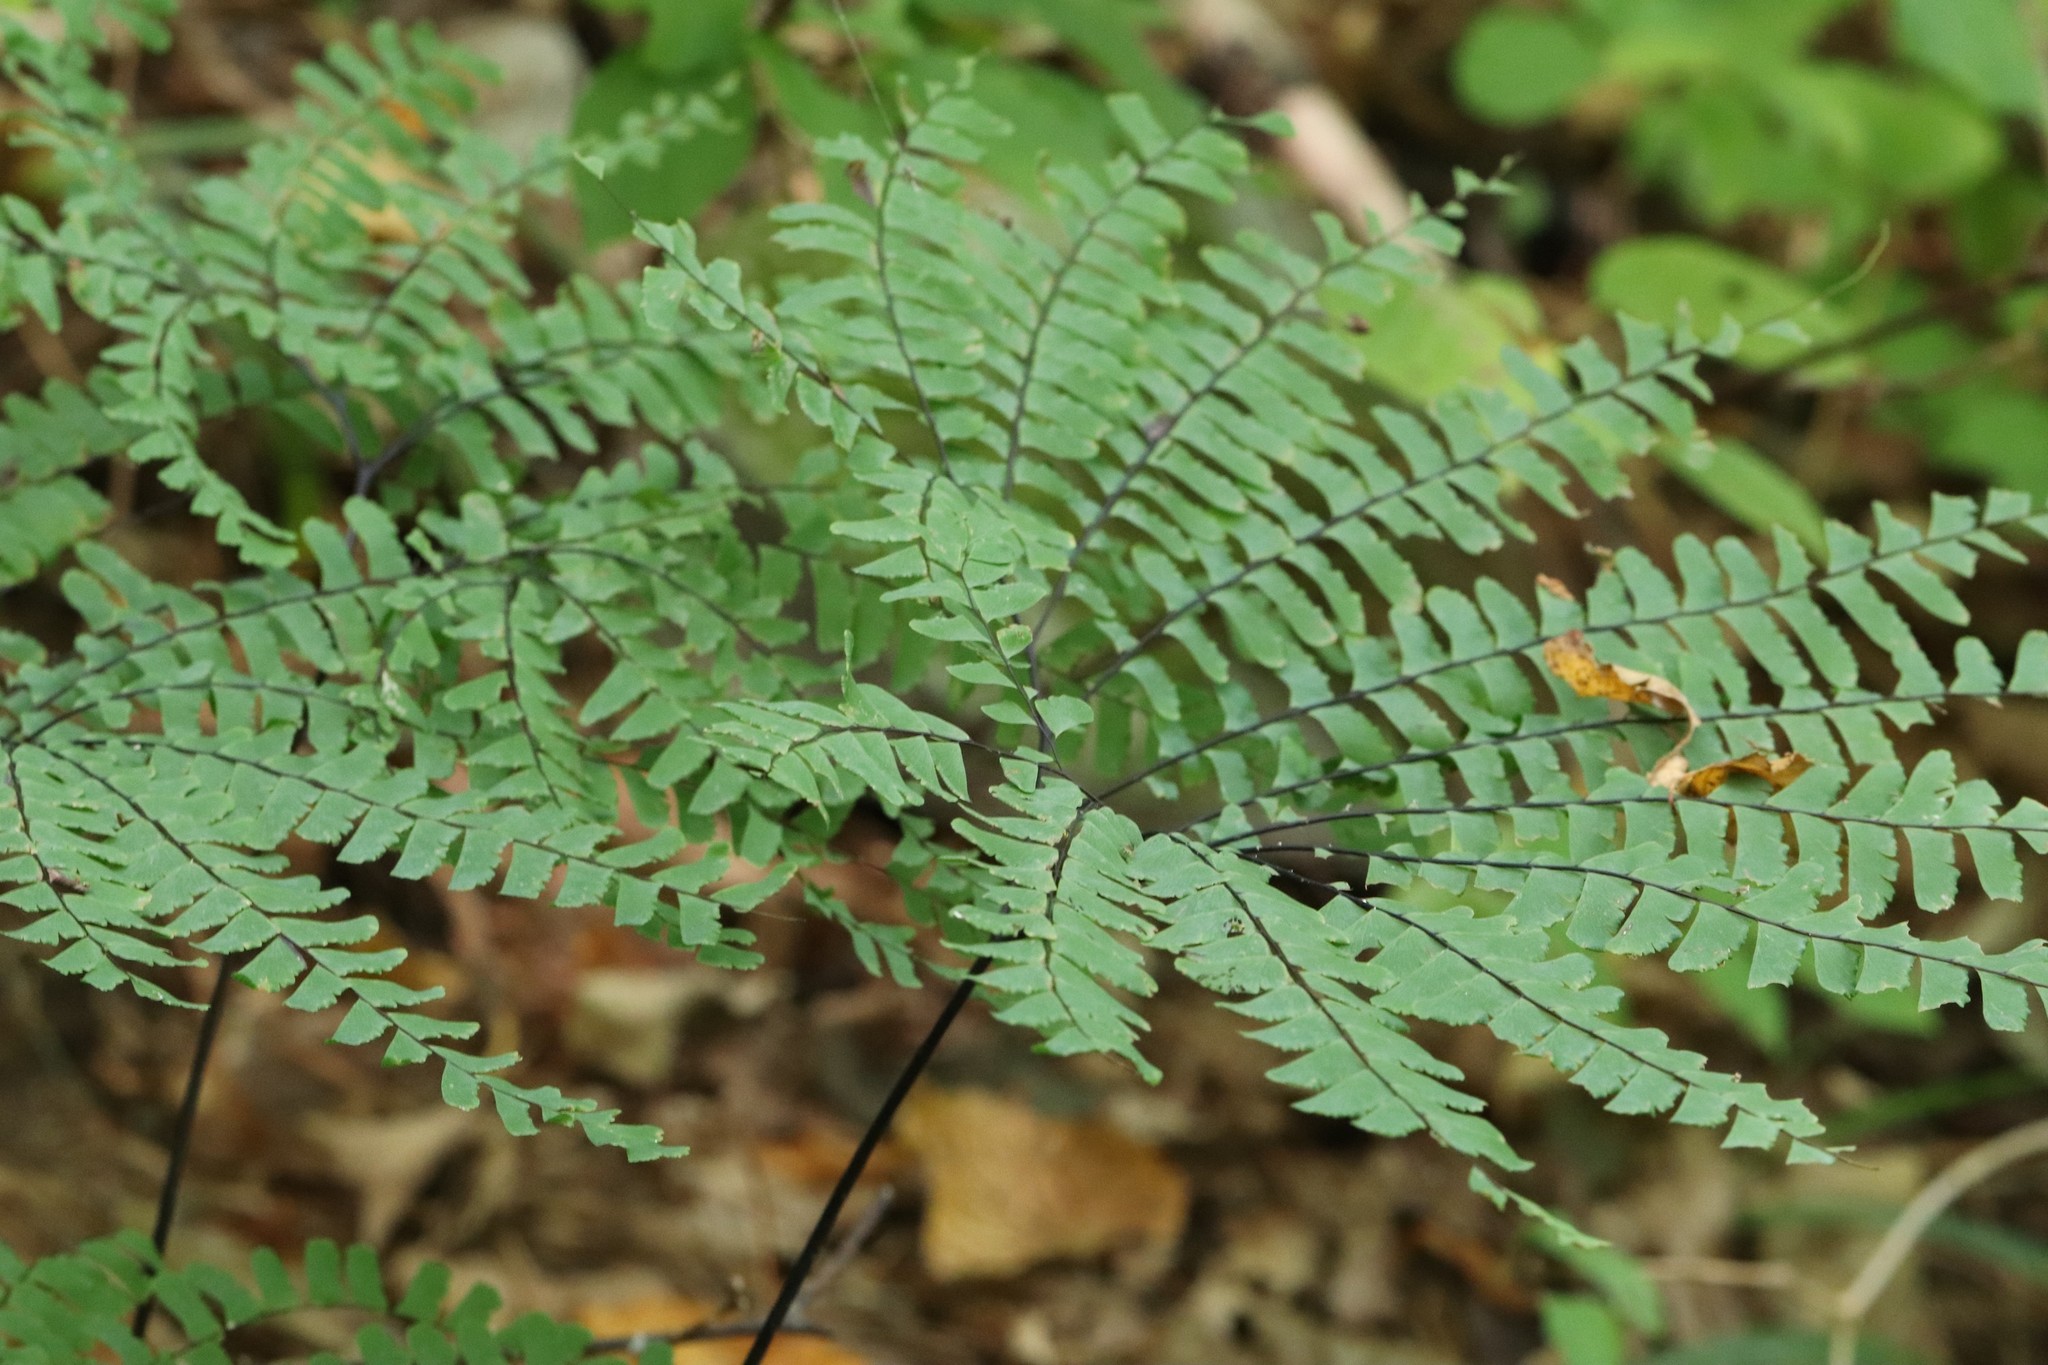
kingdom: Plantae
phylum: Tracheophyta
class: Polypodiopsida
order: Polypodiales
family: Pteridaceae
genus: Adiantum
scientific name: Adiantum pedatum
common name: Five-finger fern
